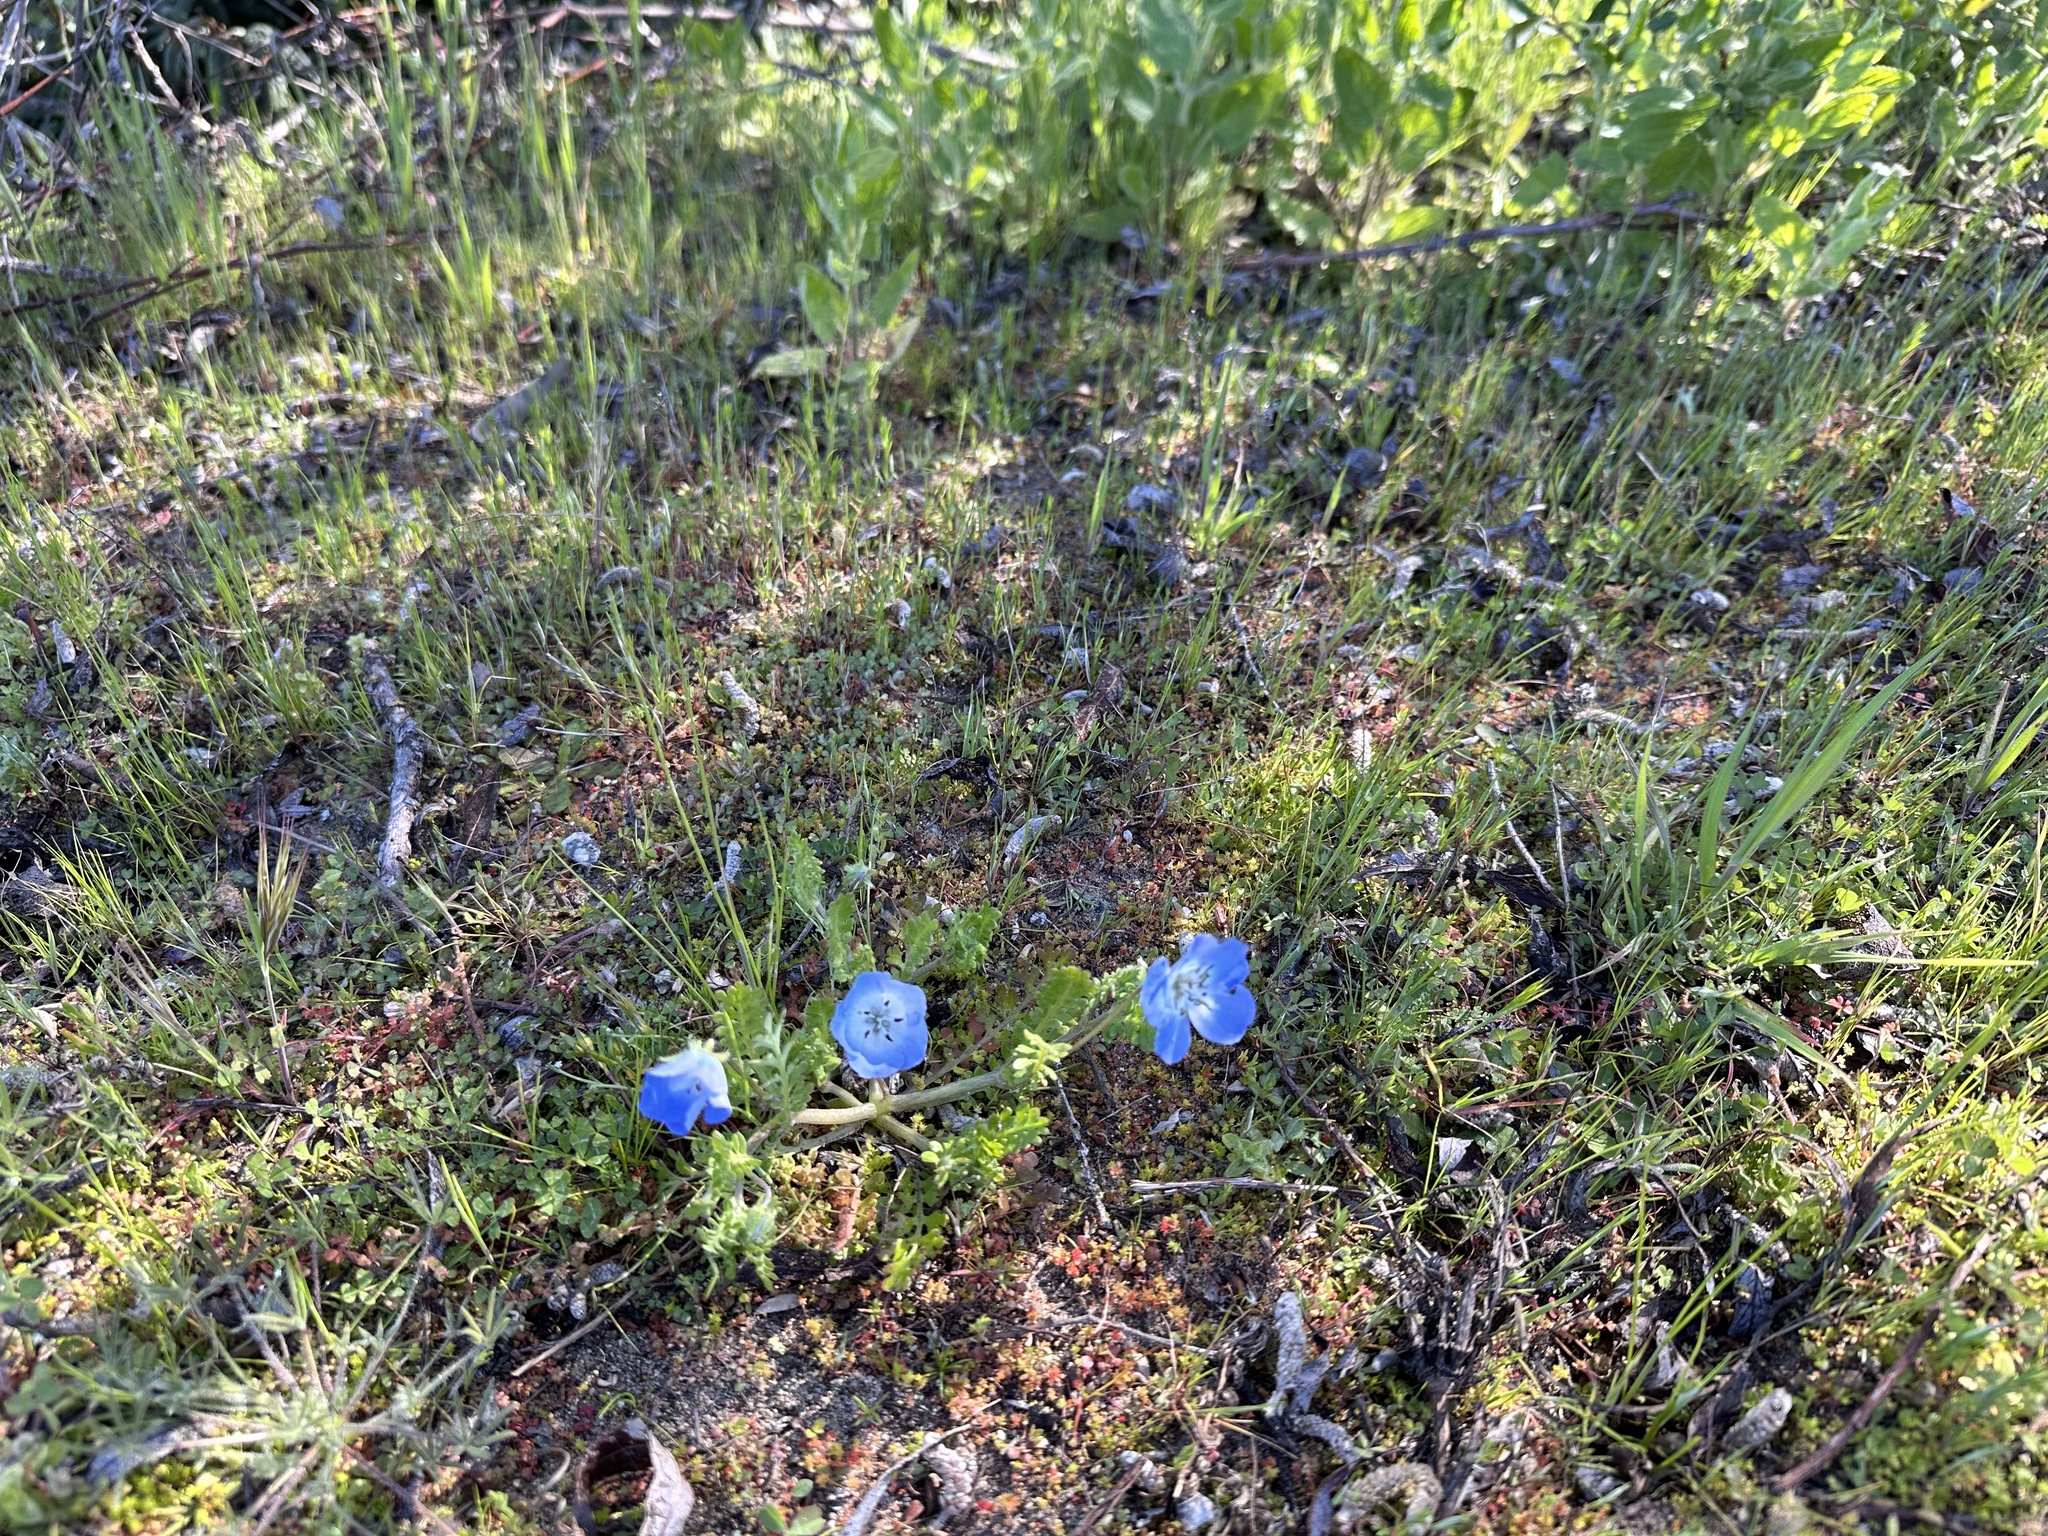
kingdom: Plantae
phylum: Tracheophyta
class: Magnoliopsida
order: Boraginales
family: Hydrophyllaceae
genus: Nemophila
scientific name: Nemophila menziesii
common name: Baby's-blue-eyes
